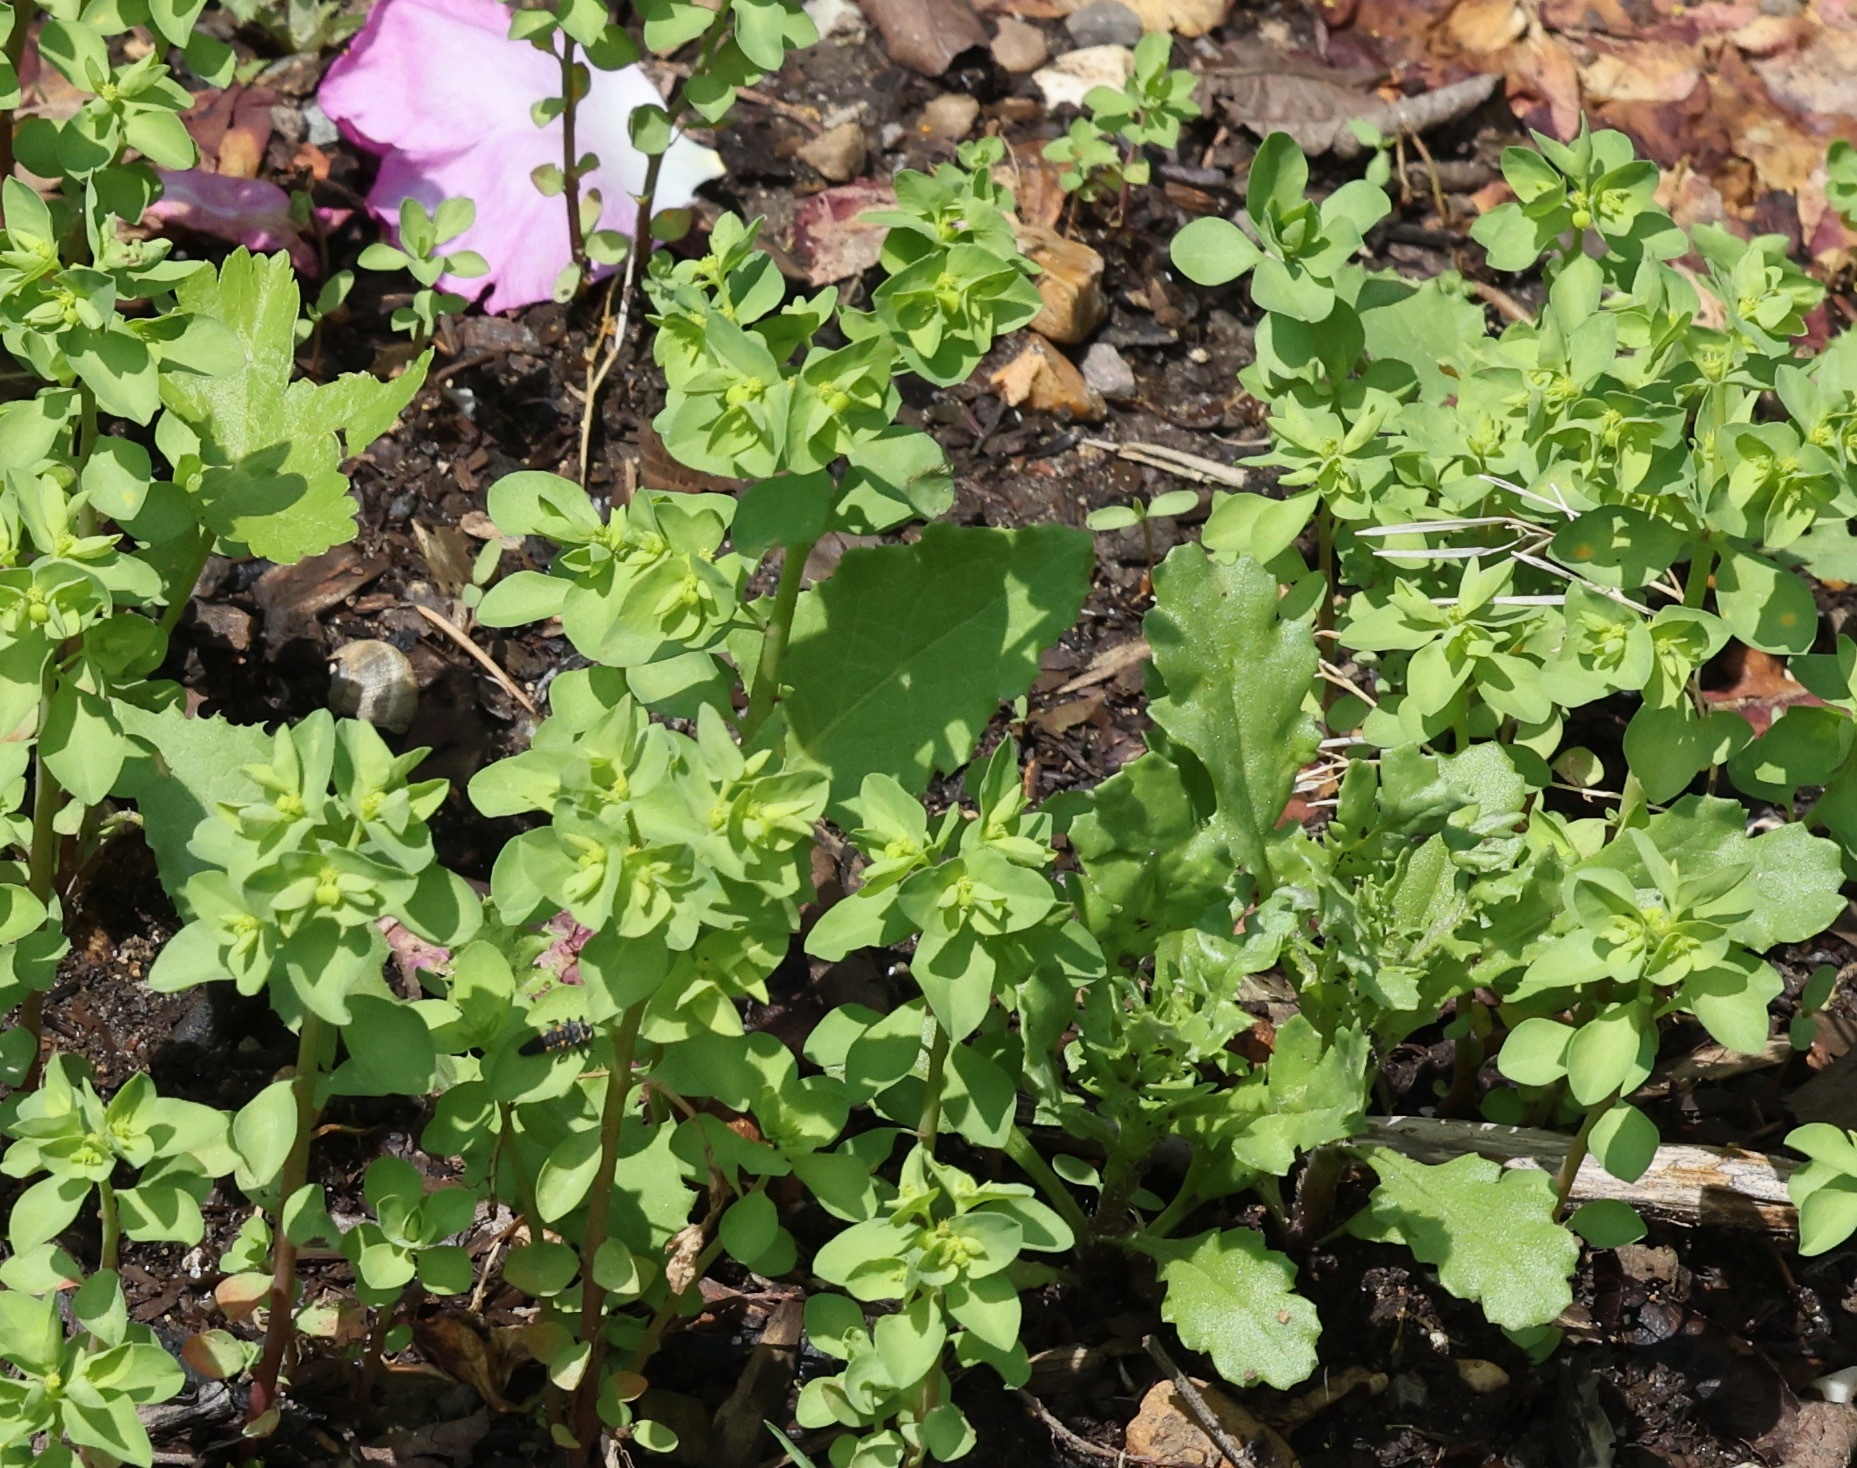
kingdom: Plantae
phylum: Tracheophyta
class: Magnoliopsida
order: Malpighiales
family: Euphorbiaceae
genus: Euphorbia
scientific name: Euphorbia peplus
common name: Petty spurge
